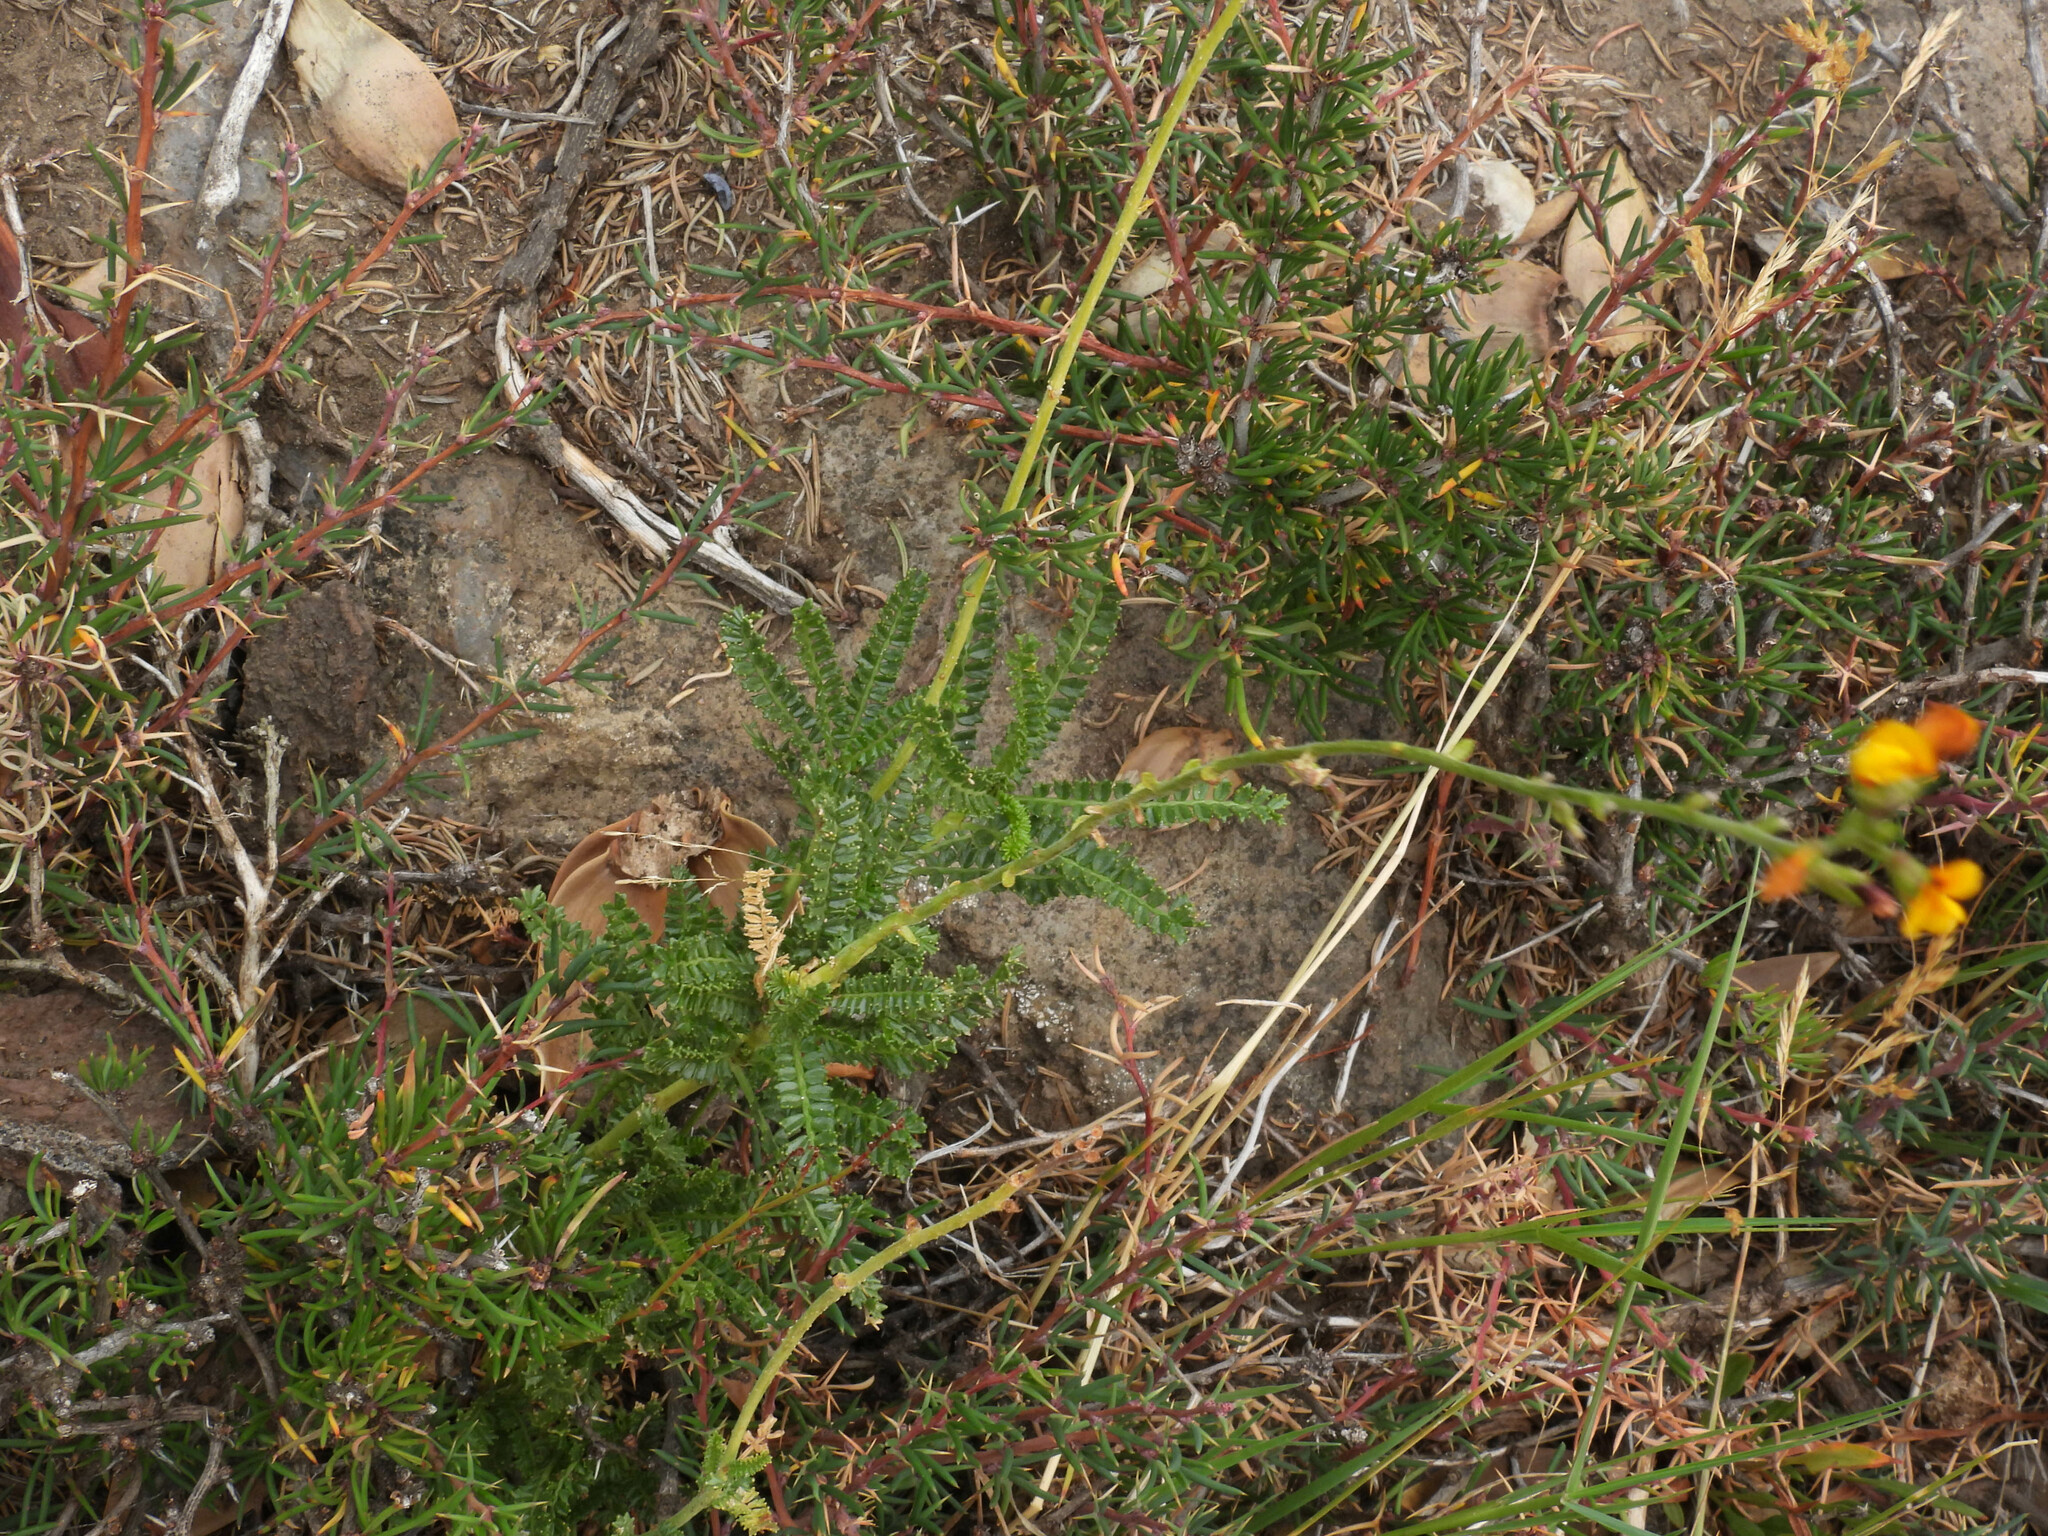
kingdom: Plantae
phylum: Tracheophyta
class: Magnoliopsida
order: Fabales
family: Fabaceae
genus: Adesmia
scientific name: Adesmia boronioides
